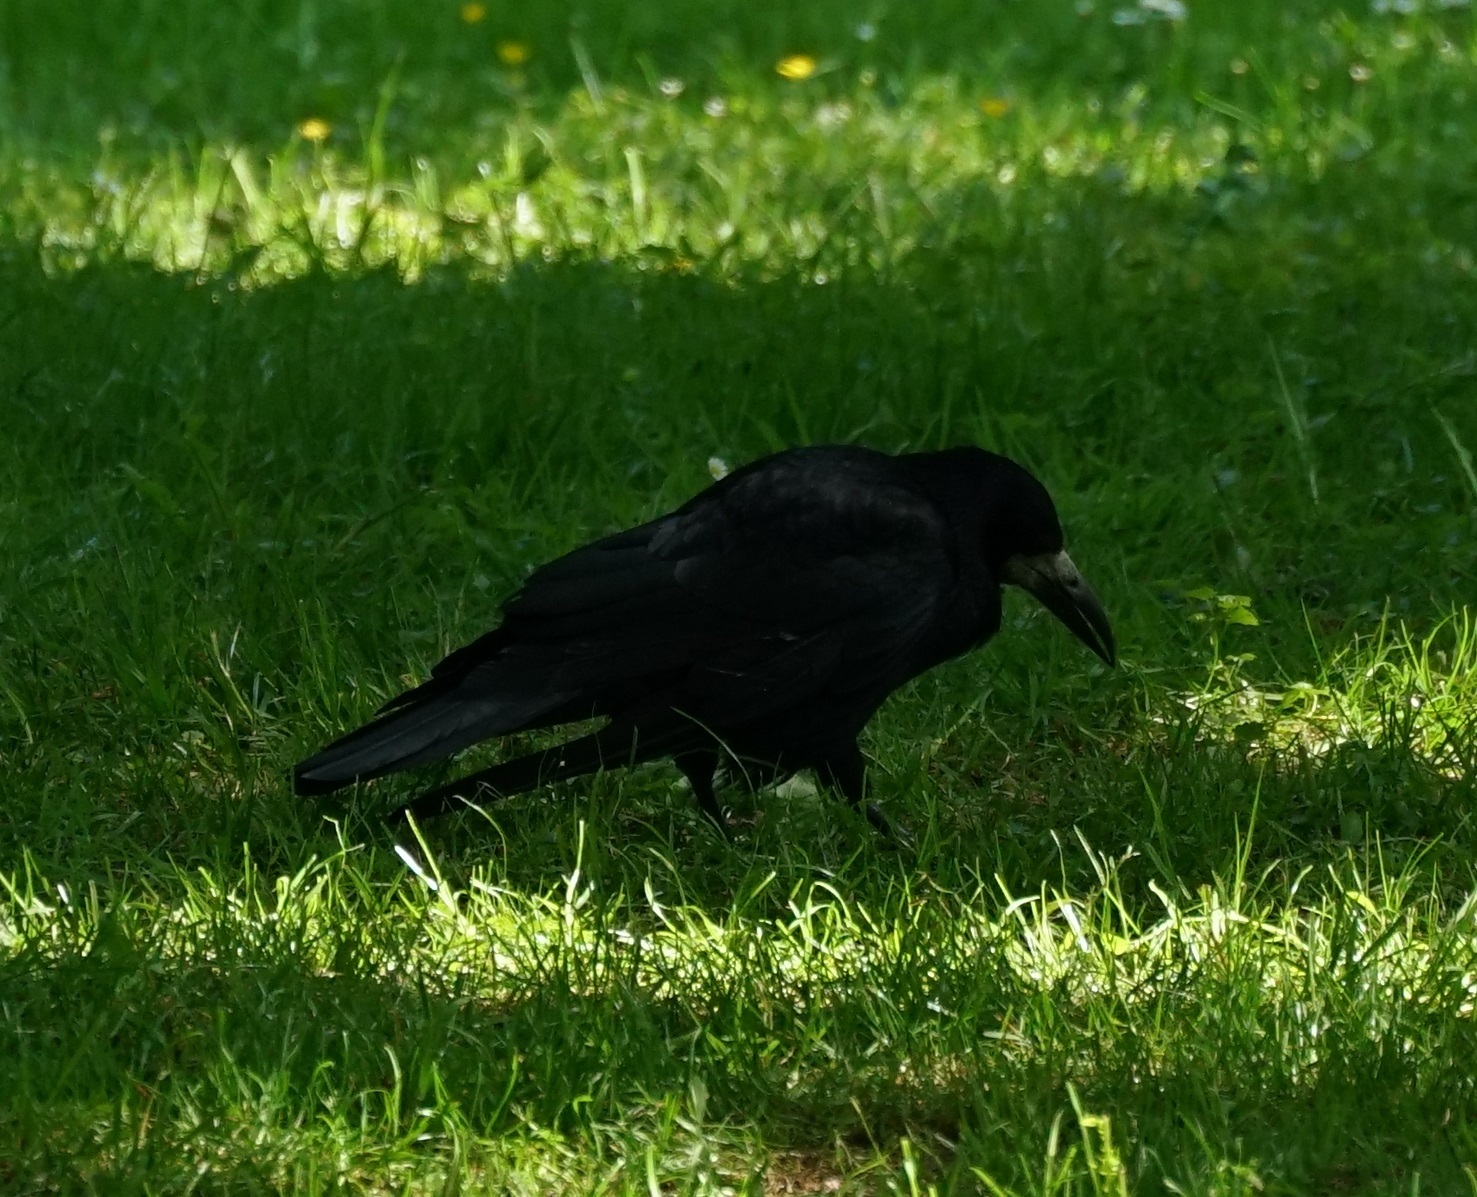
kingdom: Animalia
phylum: Chordata
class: Aves
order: Passeriformes
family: Corvidae
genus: Corvus
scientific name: Corvus frugilegus
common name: Rook
